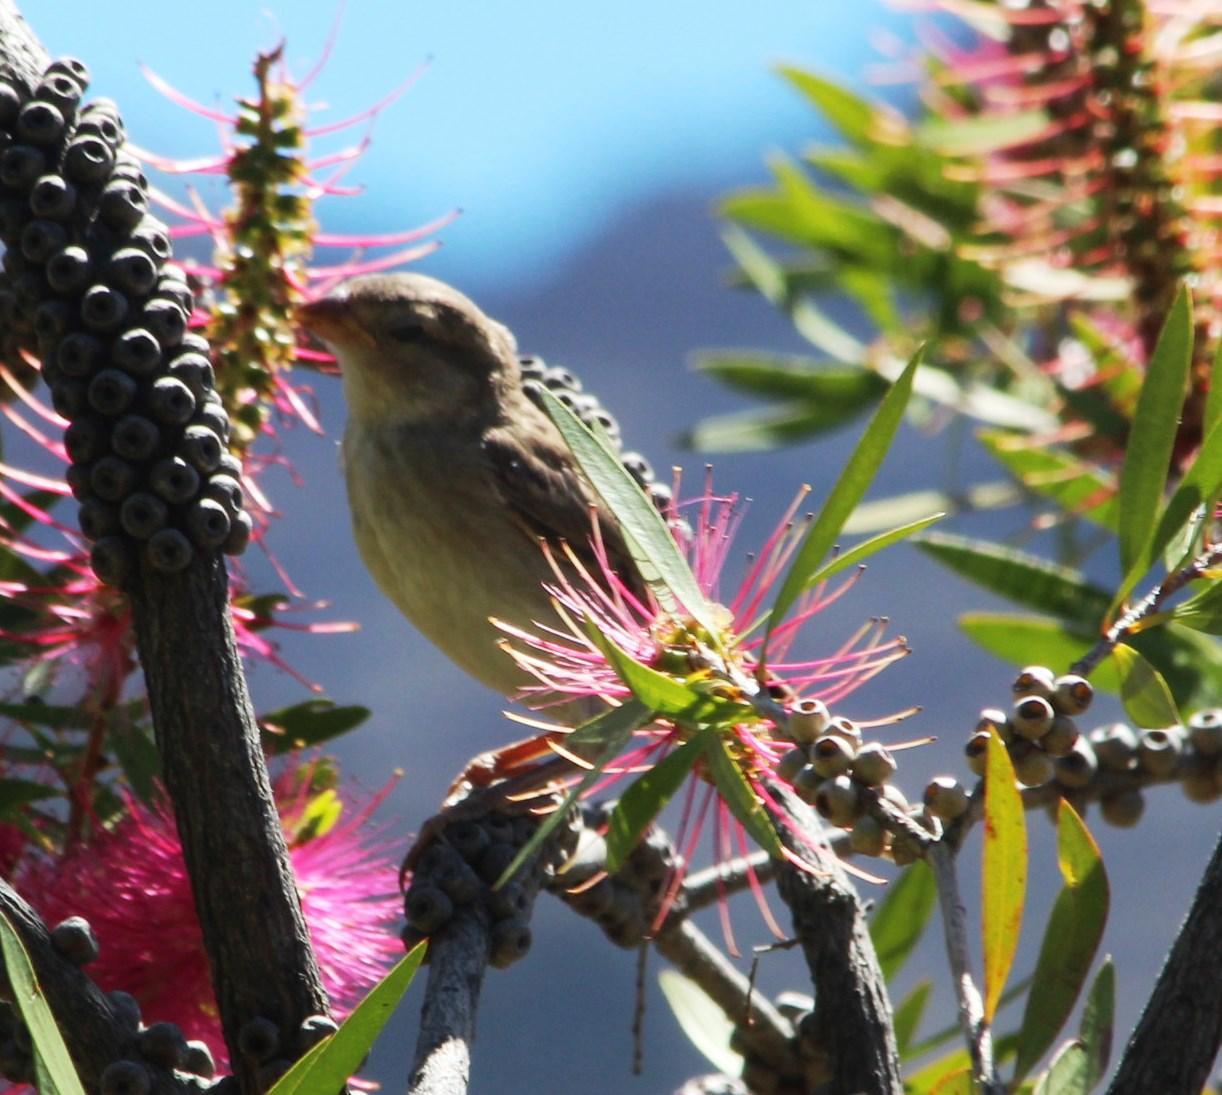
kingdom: Animalia
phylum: Chordata
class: Aves
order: Passeriformes
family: Ploceidae
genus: Quelea
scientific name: Quelea quelea
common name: Red-billed quelea
